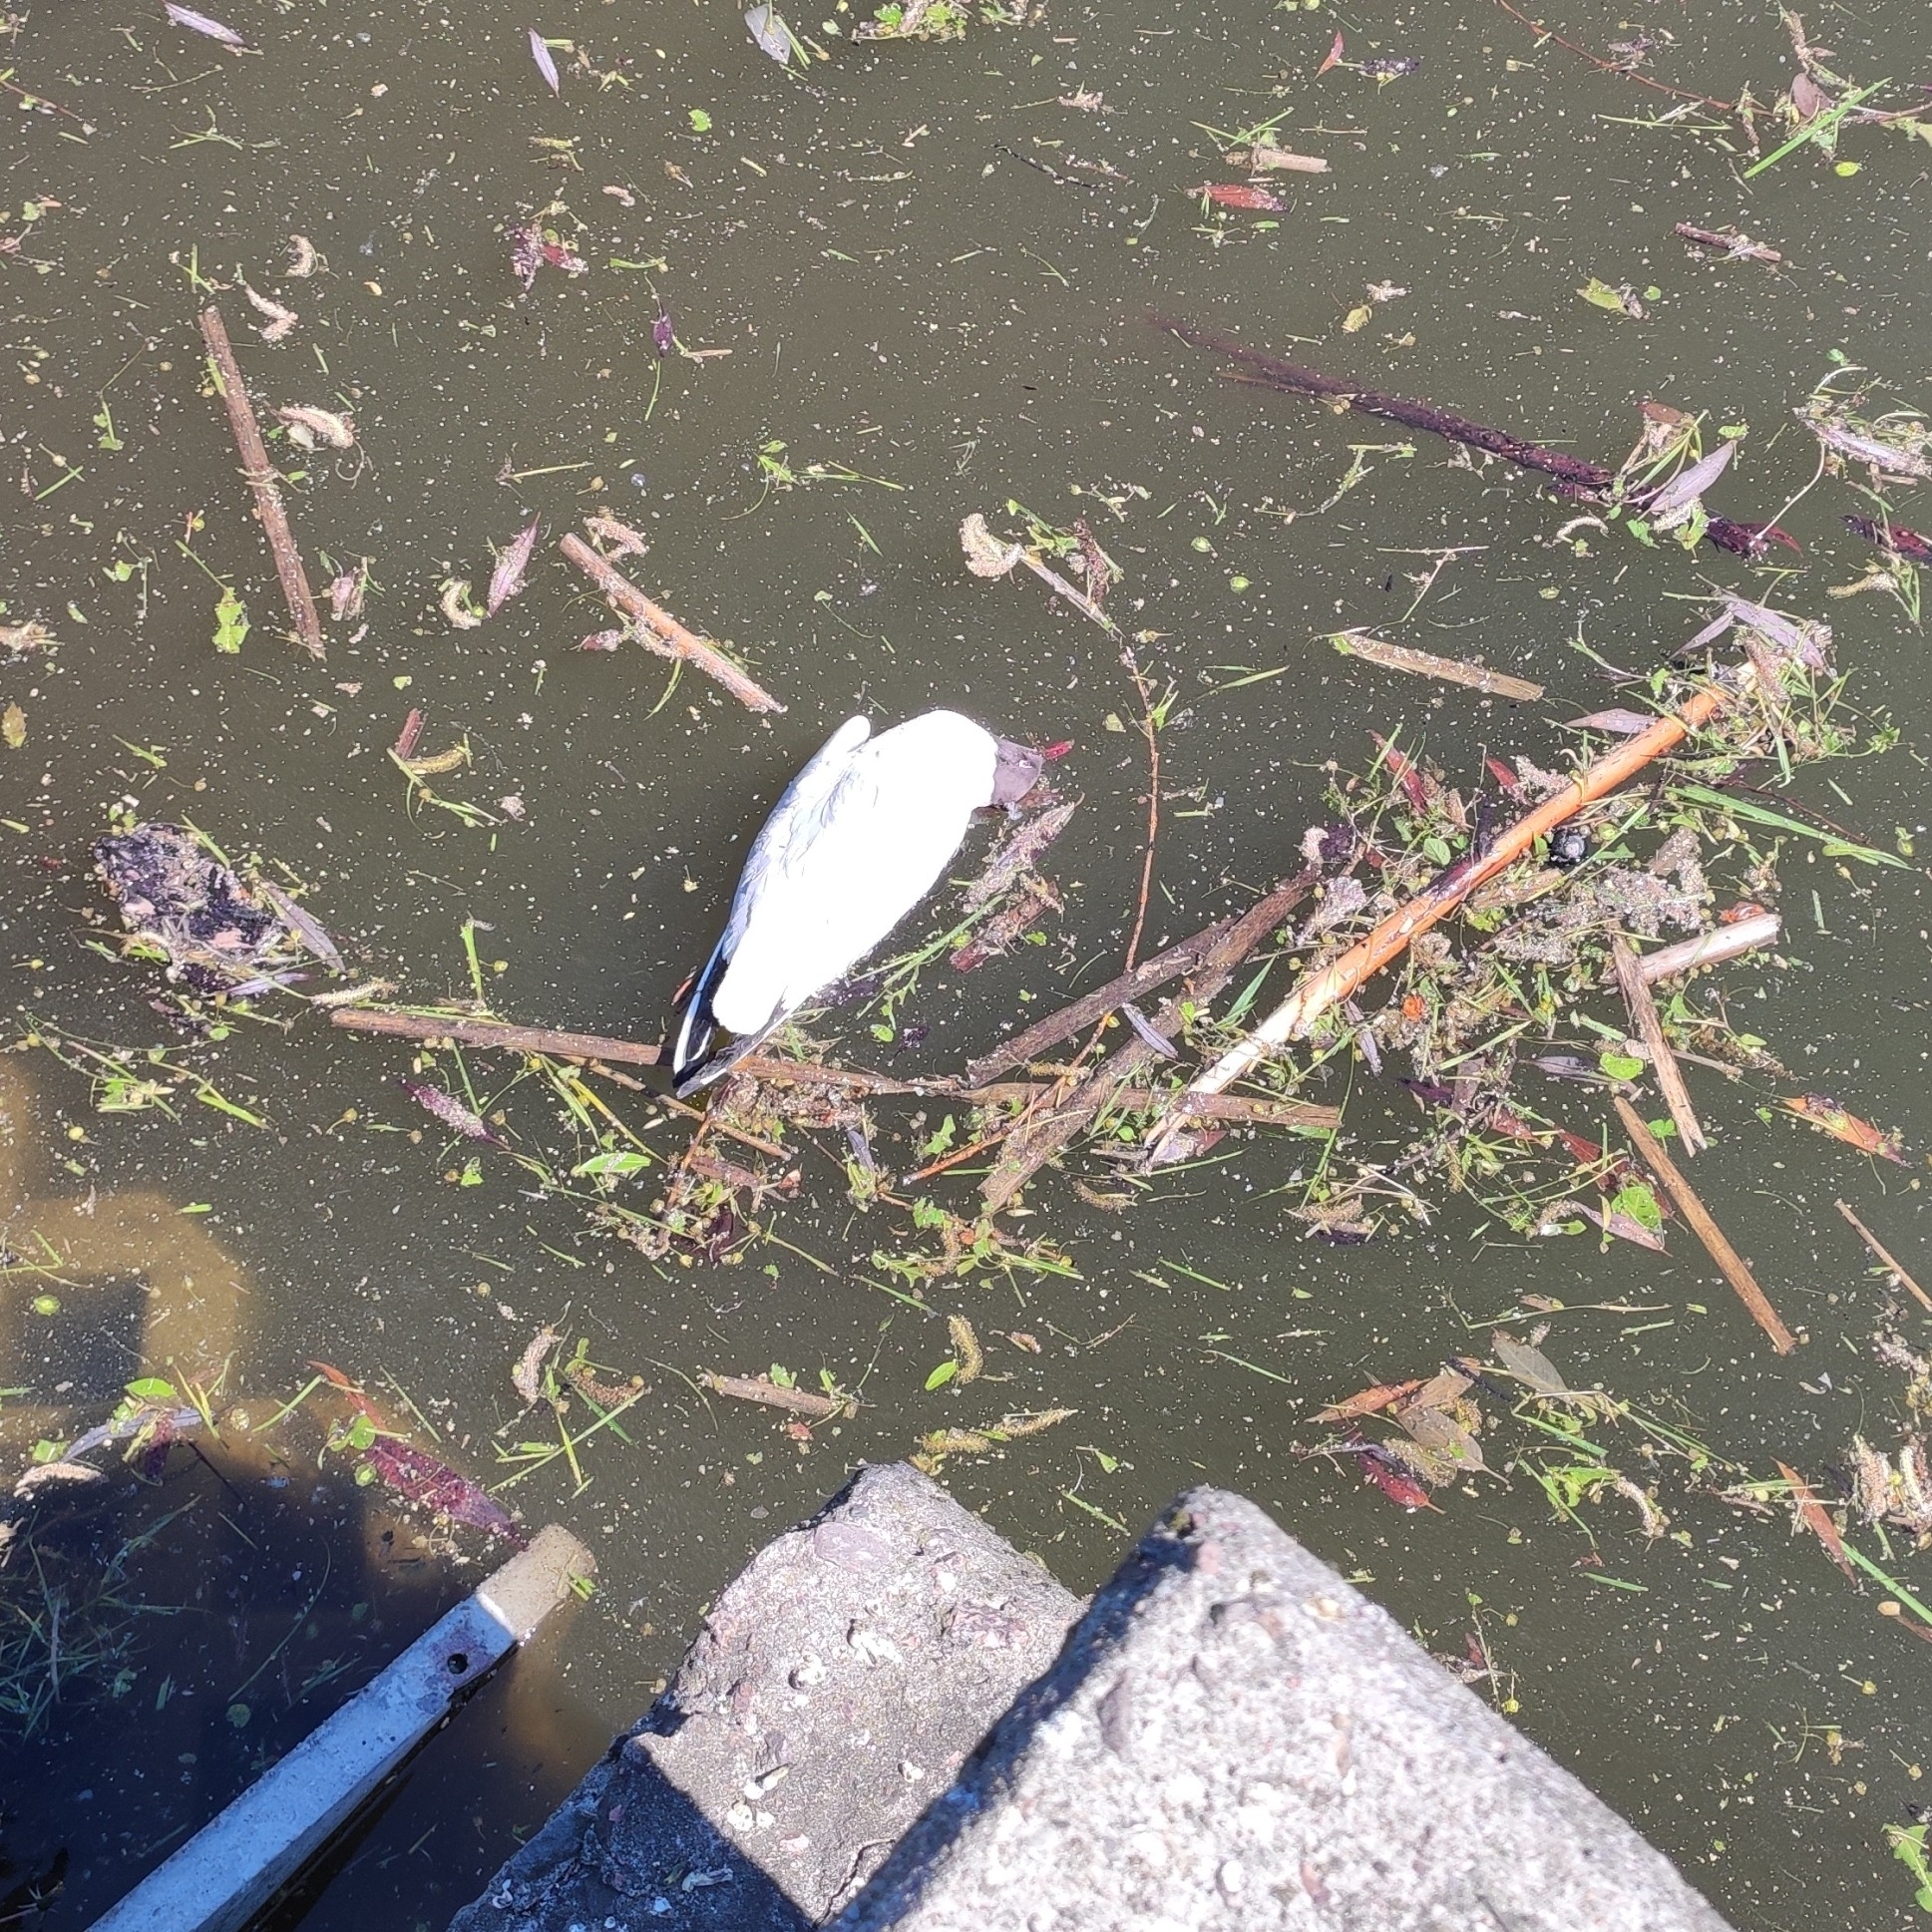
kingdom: Animalia
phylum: Chordata
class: Aves
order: Charadriiformes
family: Laridae
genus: Chroicocephalus
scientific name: Chroicocephalus ridibundus
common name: Black-headed gull
